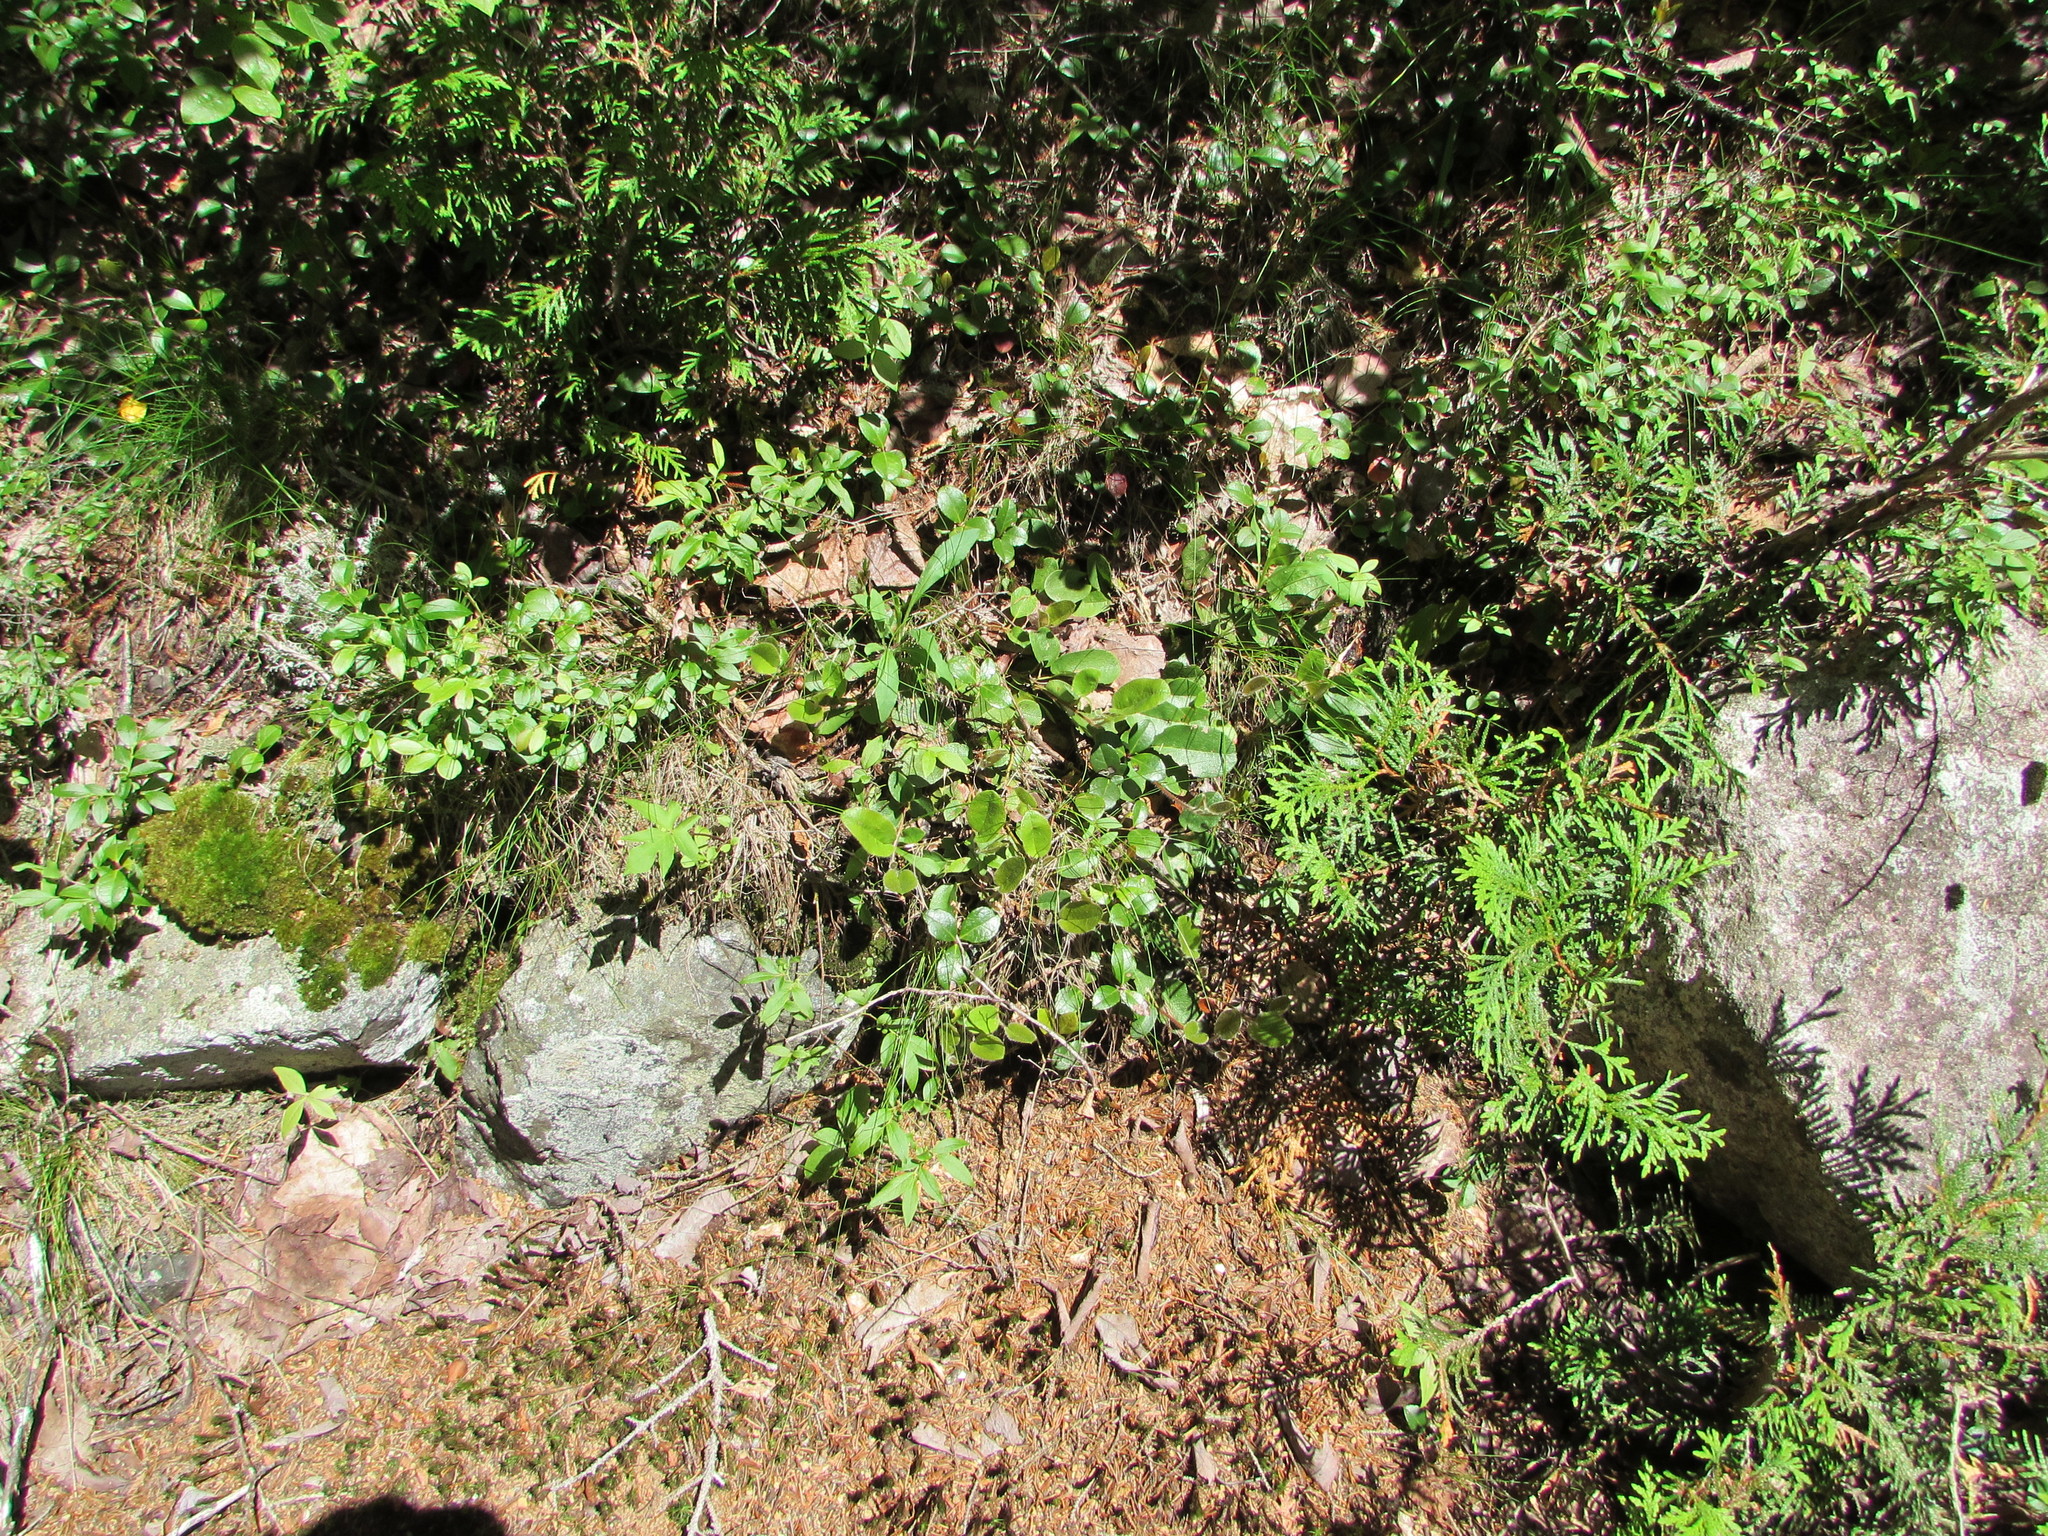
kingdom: Plantae
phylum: Tracheophyta
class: Magnoliopsida
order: Ericales
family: Ericaceae
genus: Epigaea
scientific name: Epigaea repens
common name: Gravelroot
